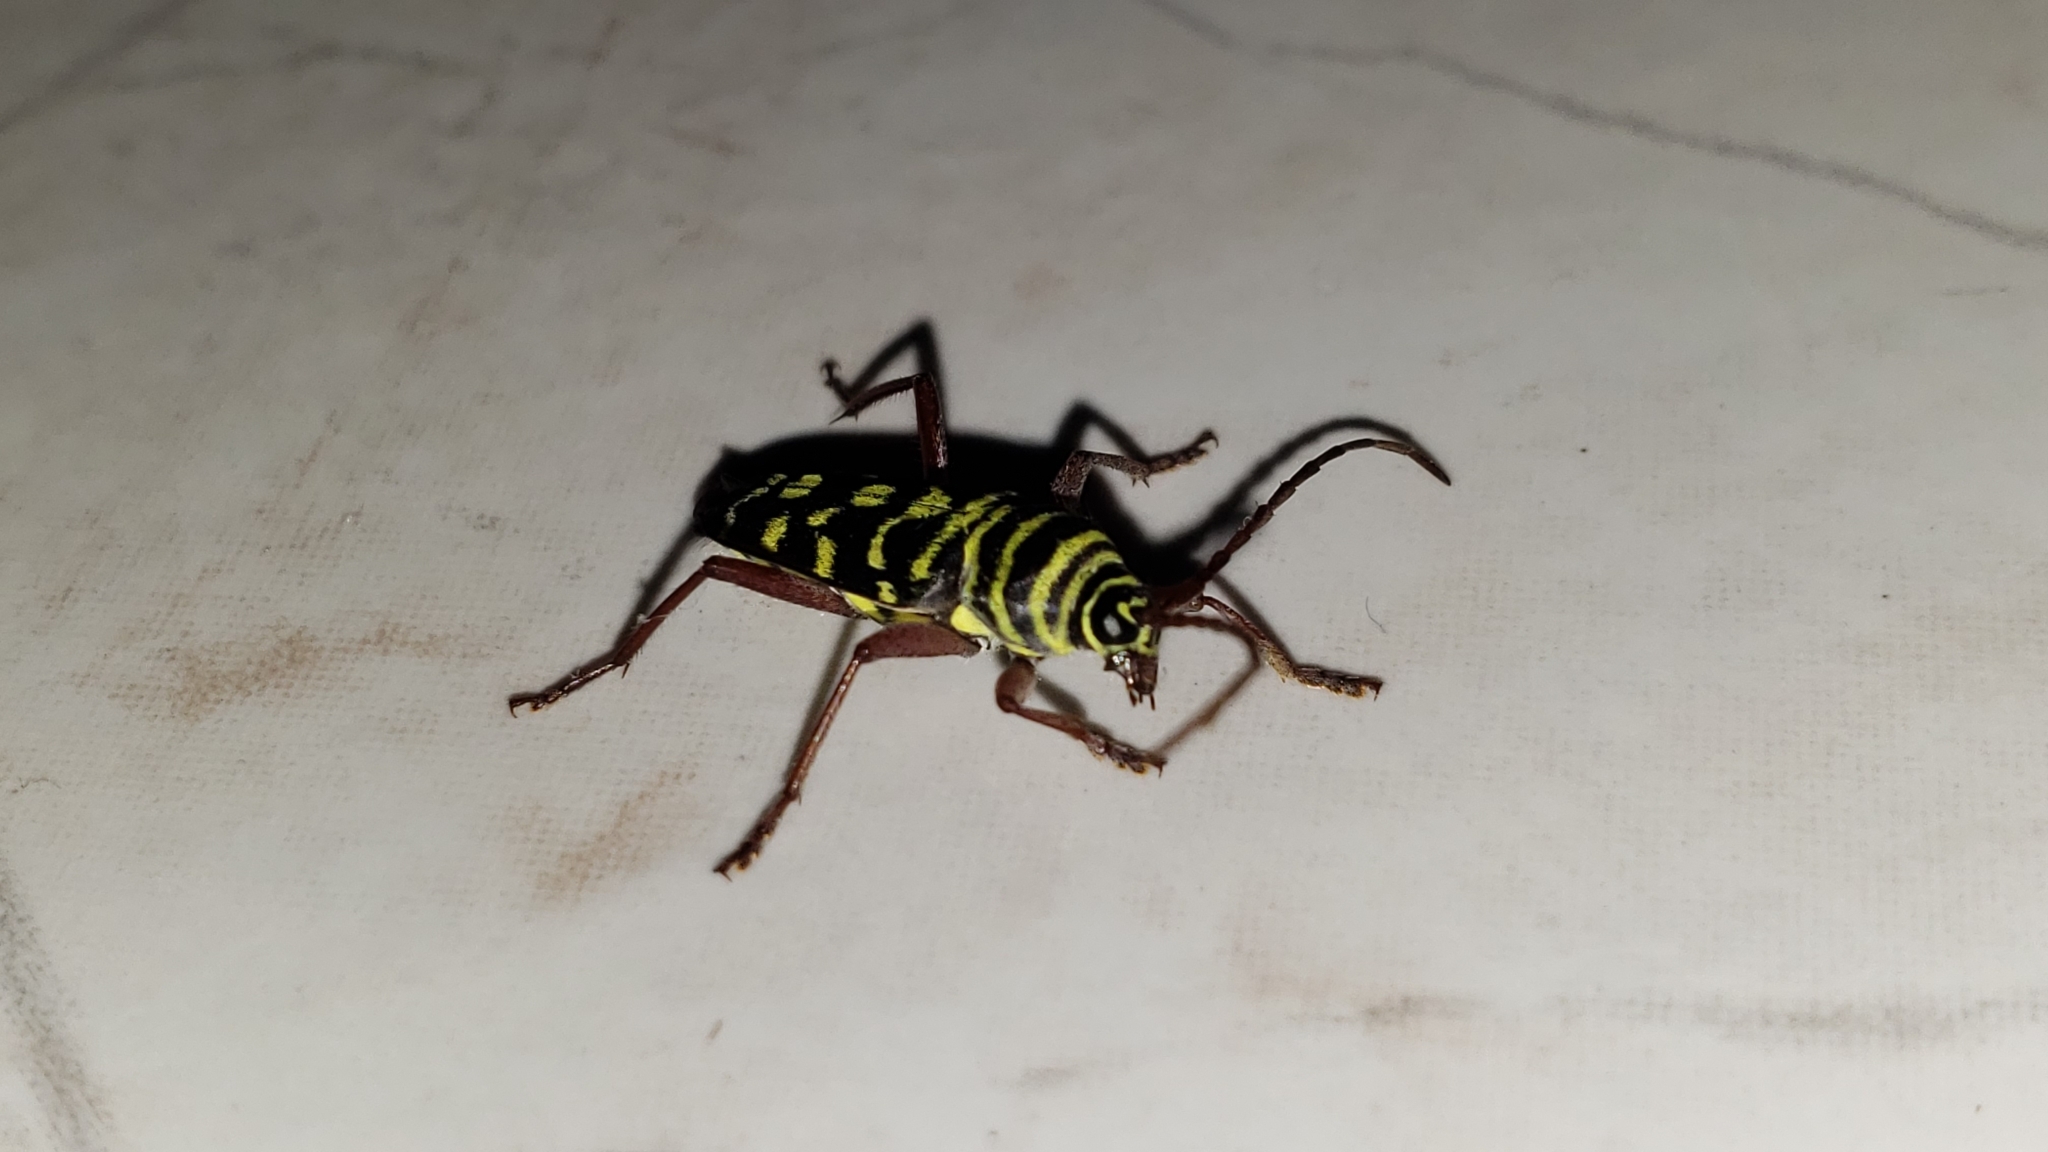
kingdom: Animalia
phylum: Arthropoda
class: Insecta
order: Coleoptera
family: Cerambycidae
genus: Placosternus
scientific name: Placosternus difficilis
